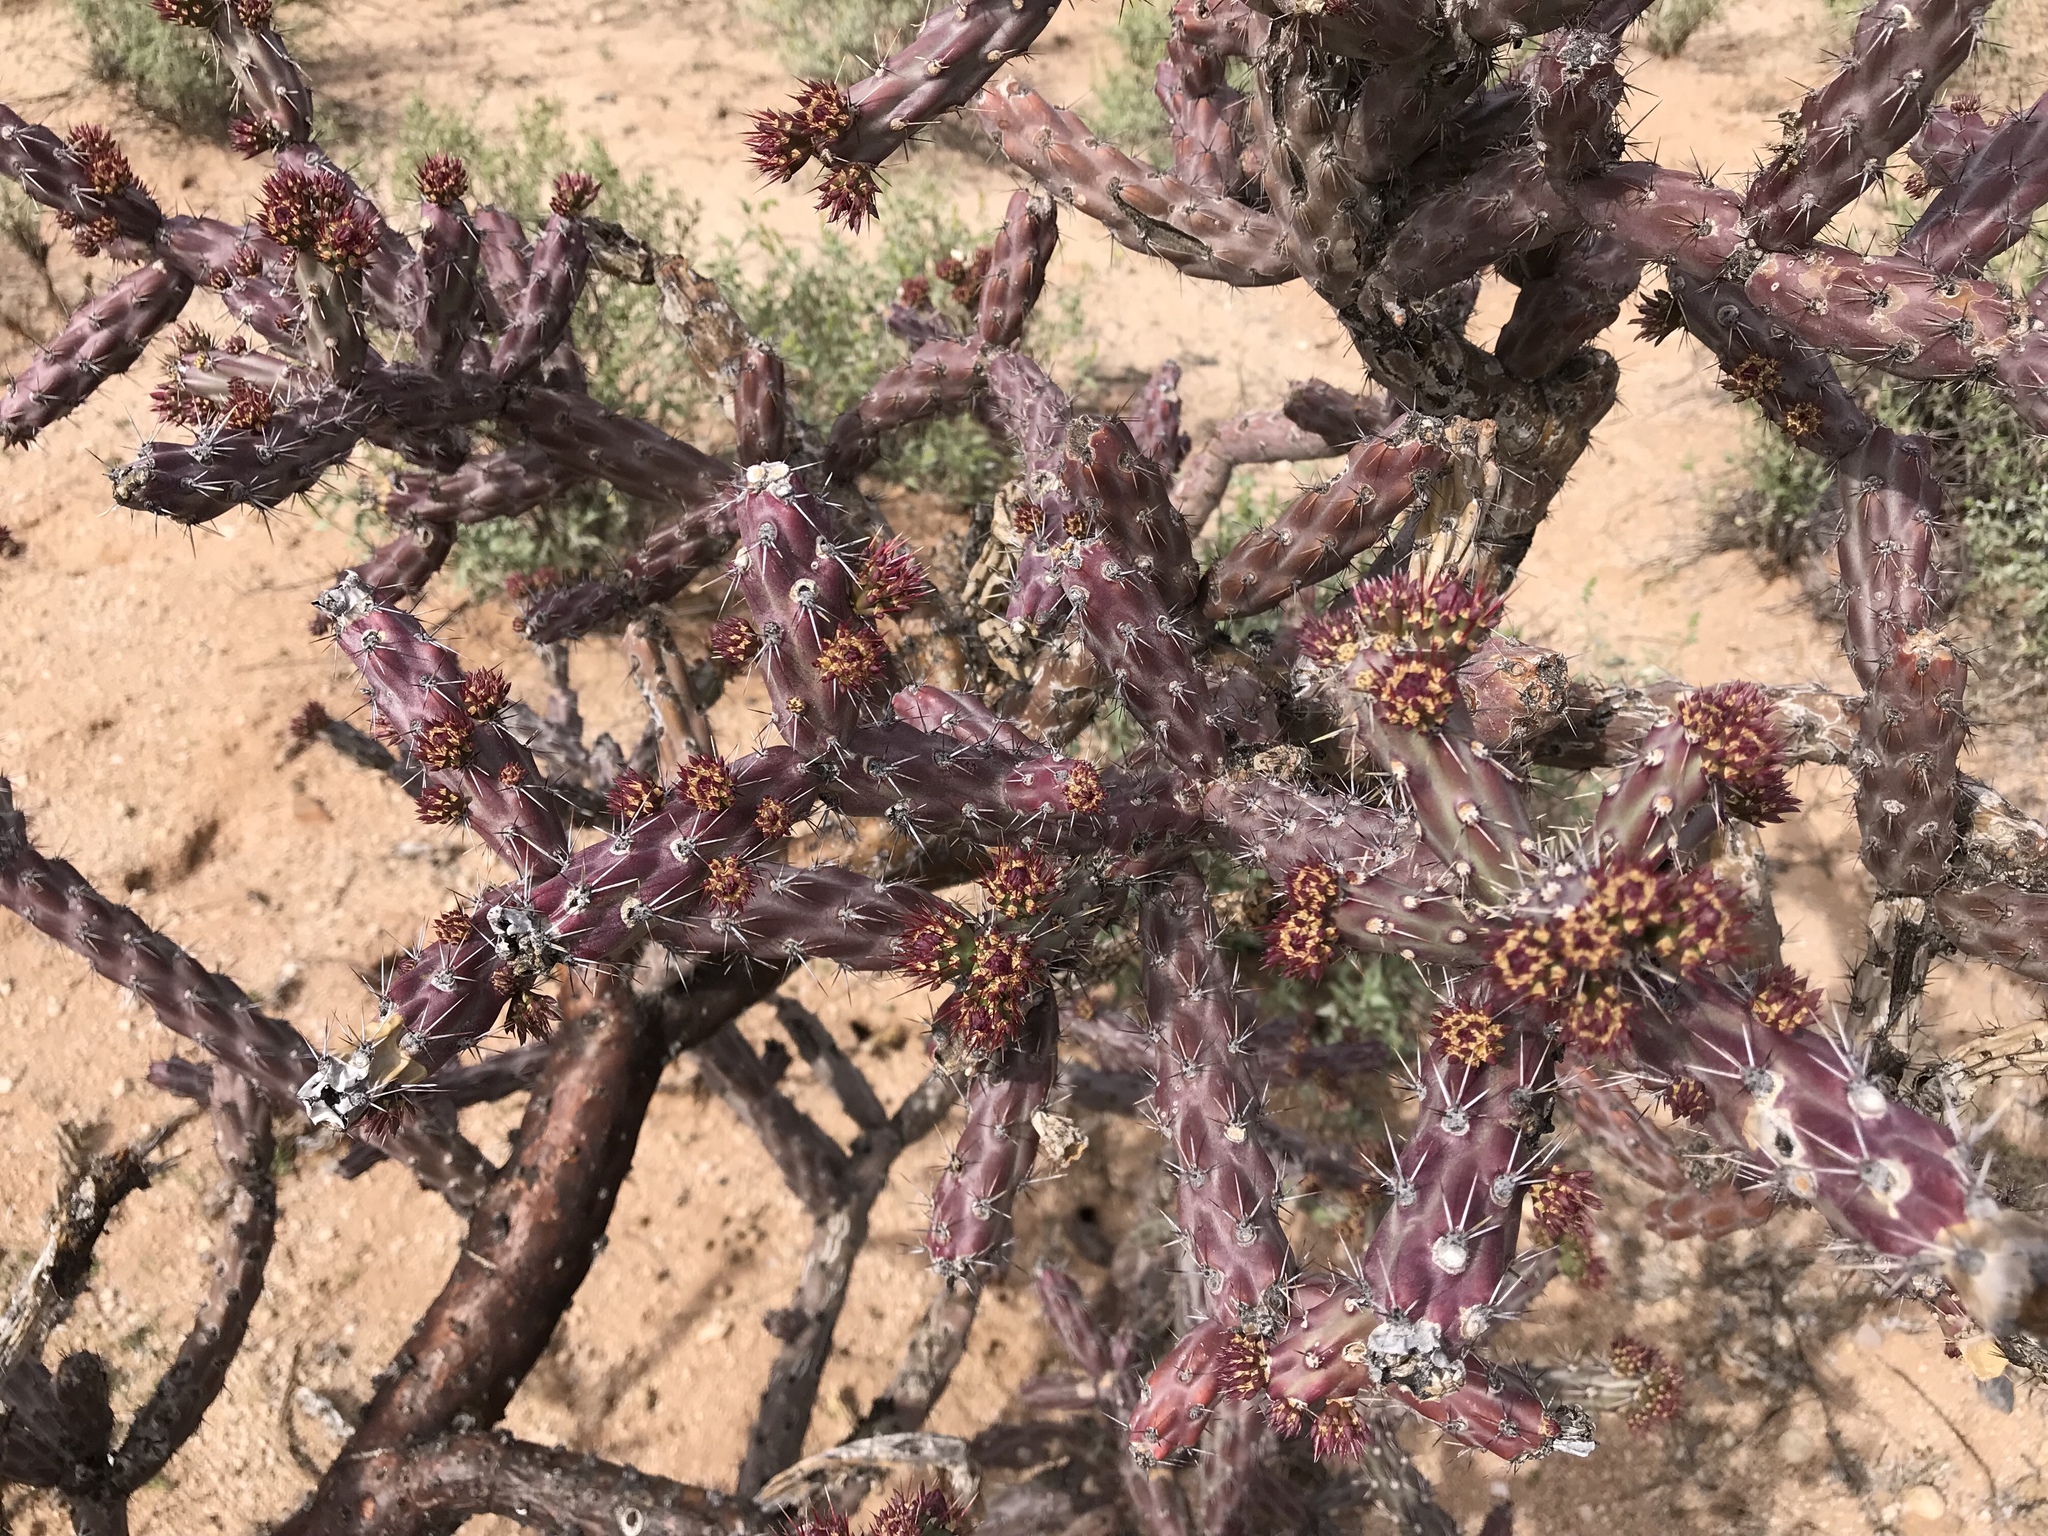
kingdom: Plantae
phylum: Tracheophyta
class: Magnoliopsida
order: Caryophyllales
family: Cactaceae
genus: Cylindropuntia
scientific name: Cylindropuntia thurberi
